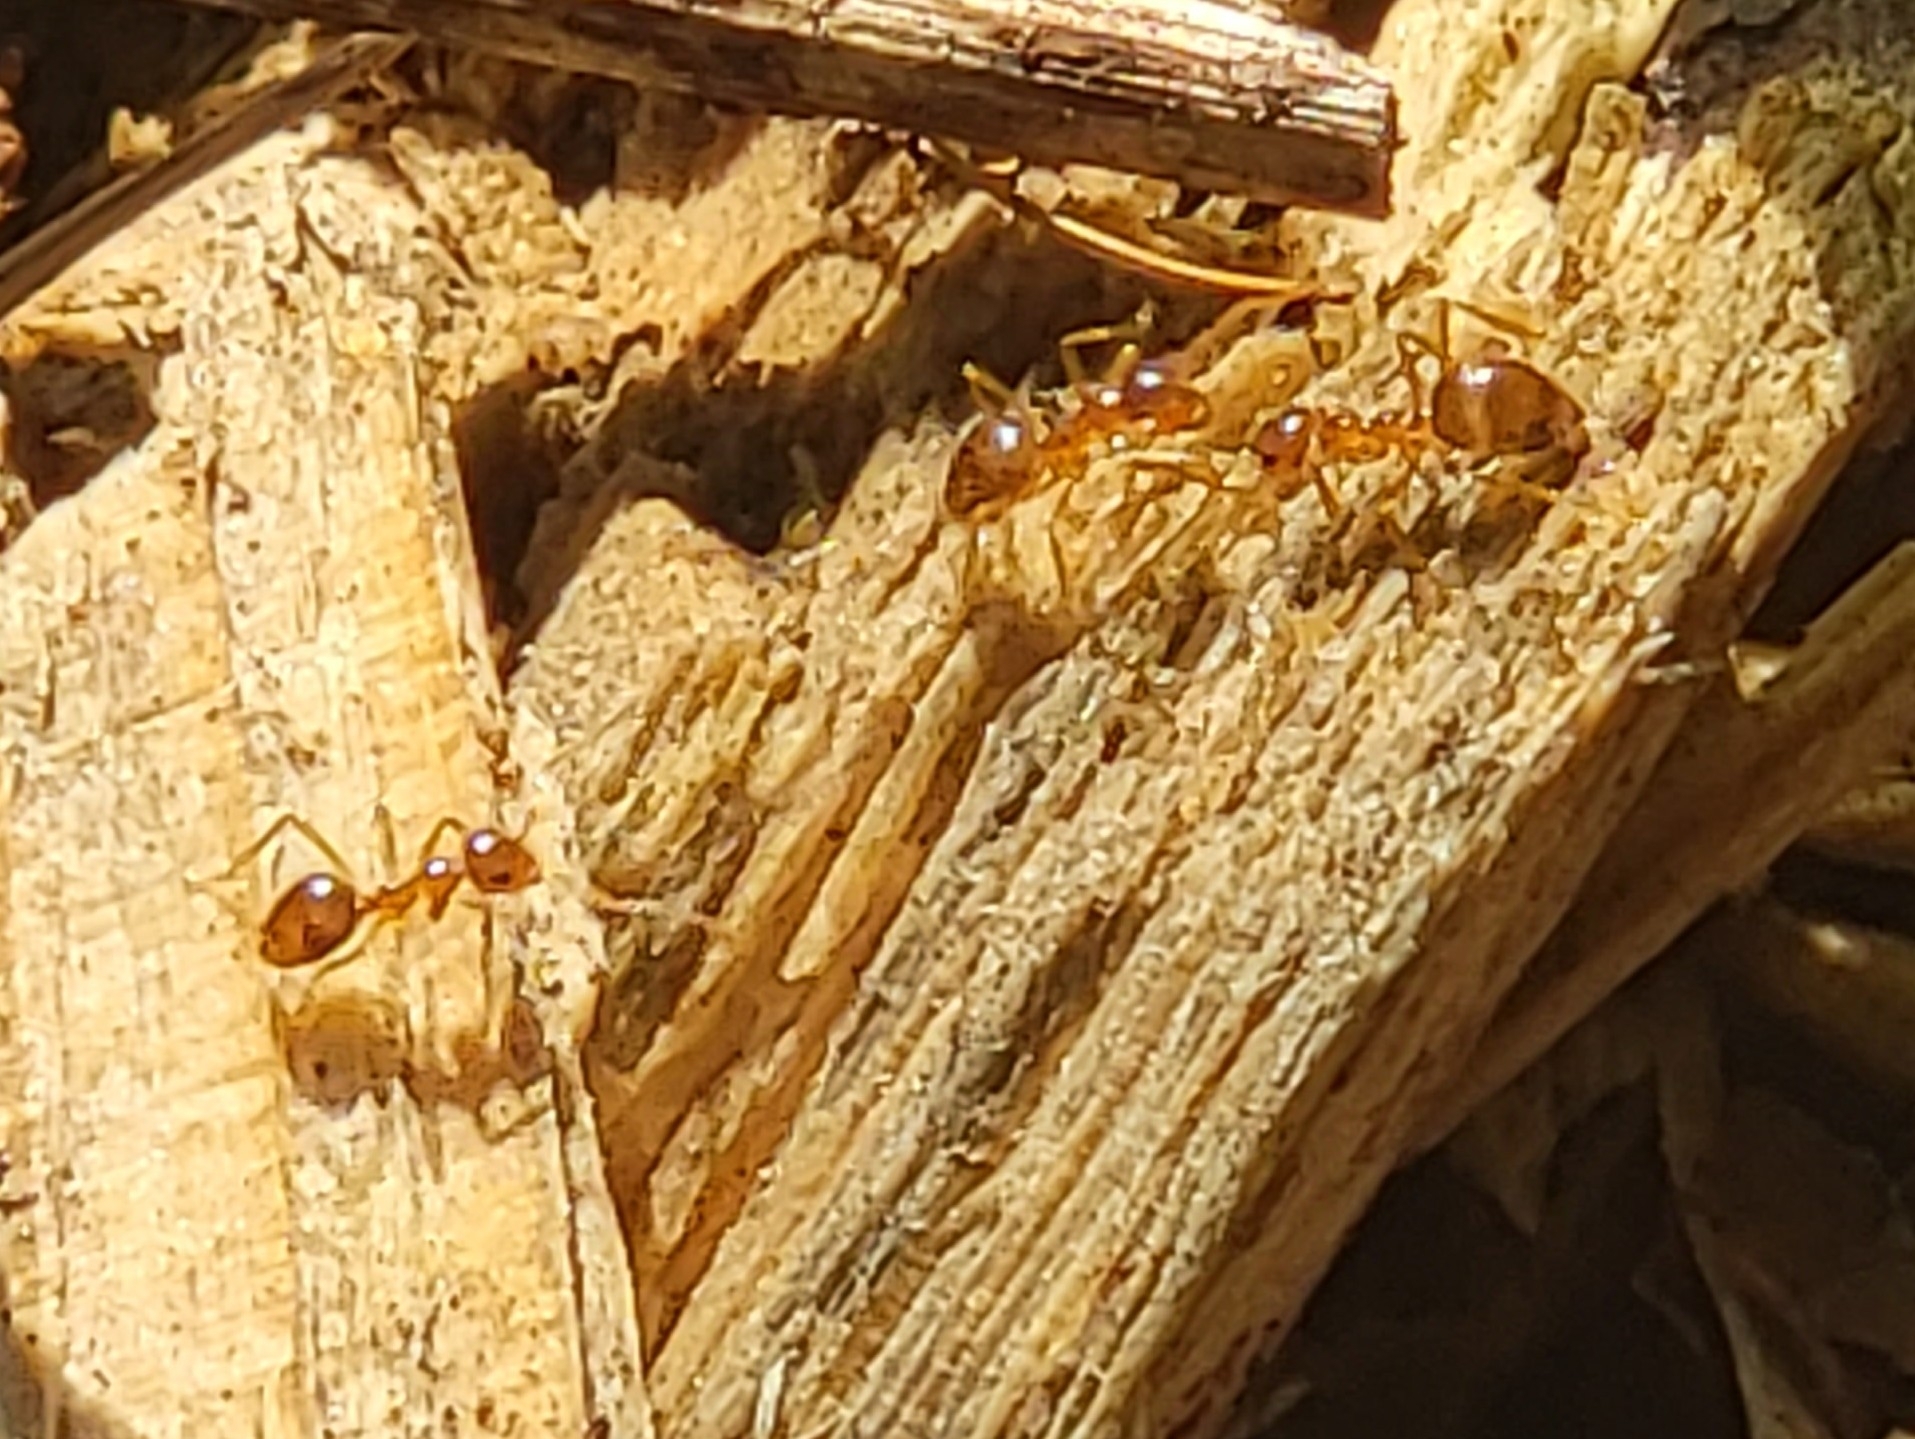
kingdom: Animalia
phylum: Arthropoda
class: Insecta
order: Hymenoptera
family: Formicidae
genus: Prenolepis
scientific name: Prenolepis imparis
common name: Small honey ant
